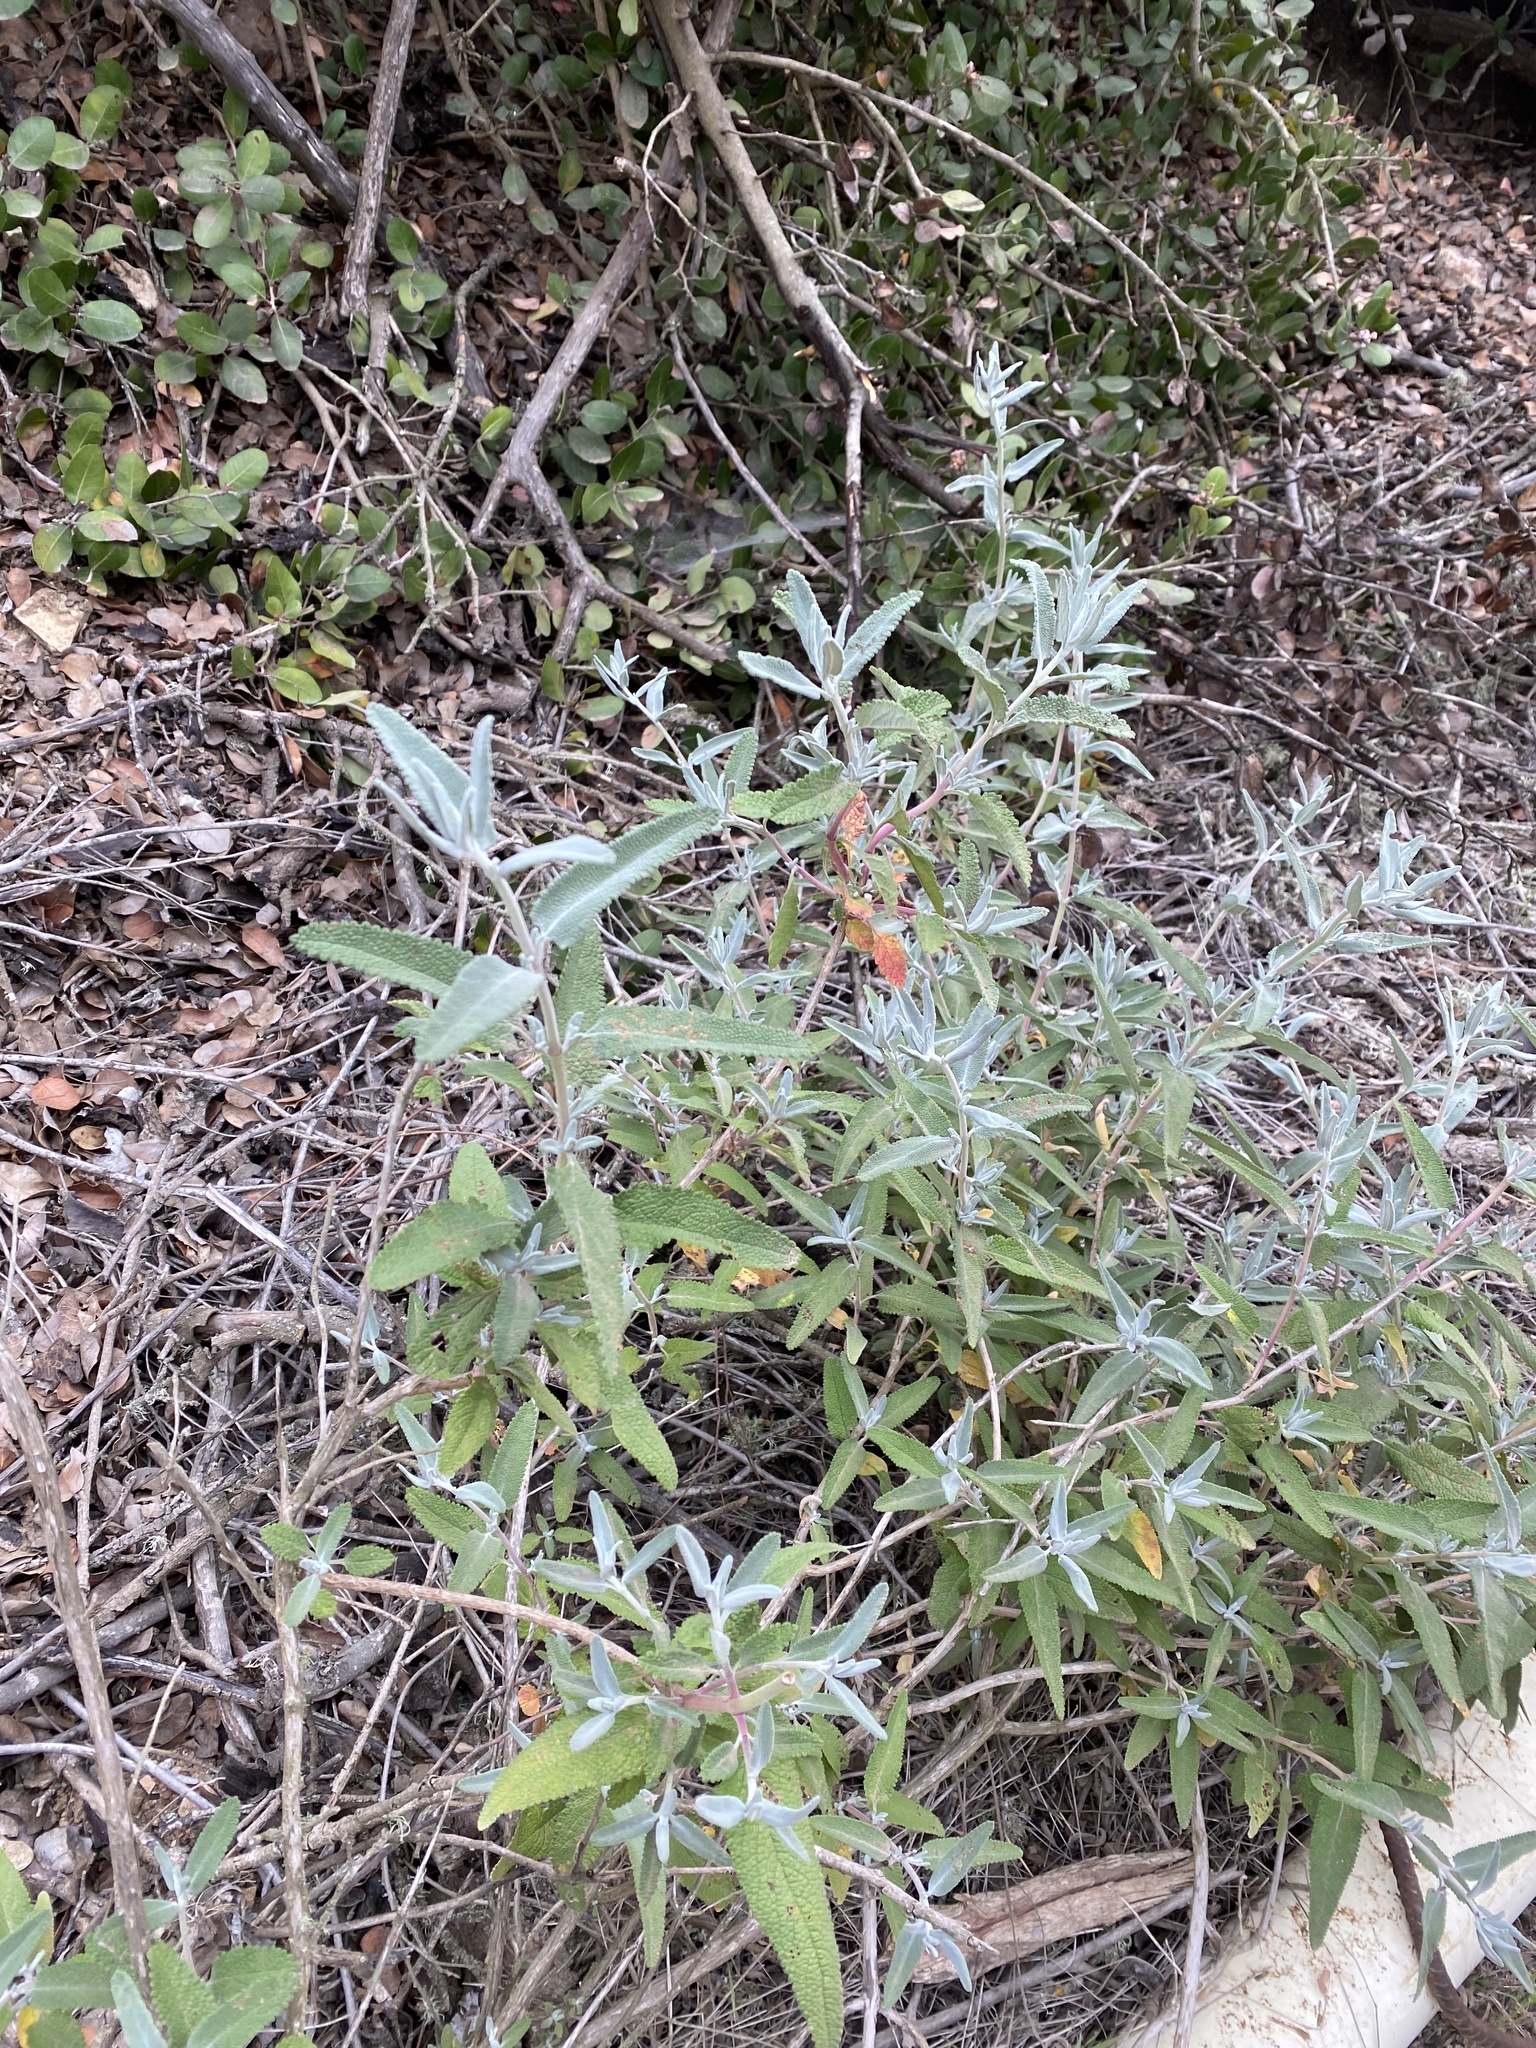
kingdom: Plantae
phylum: Tracheophyta
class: Magnoliopsida
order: Lamiales
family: Lamiaceae
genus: Salvia
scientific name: Salvia leucophylla
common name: Purple sage
